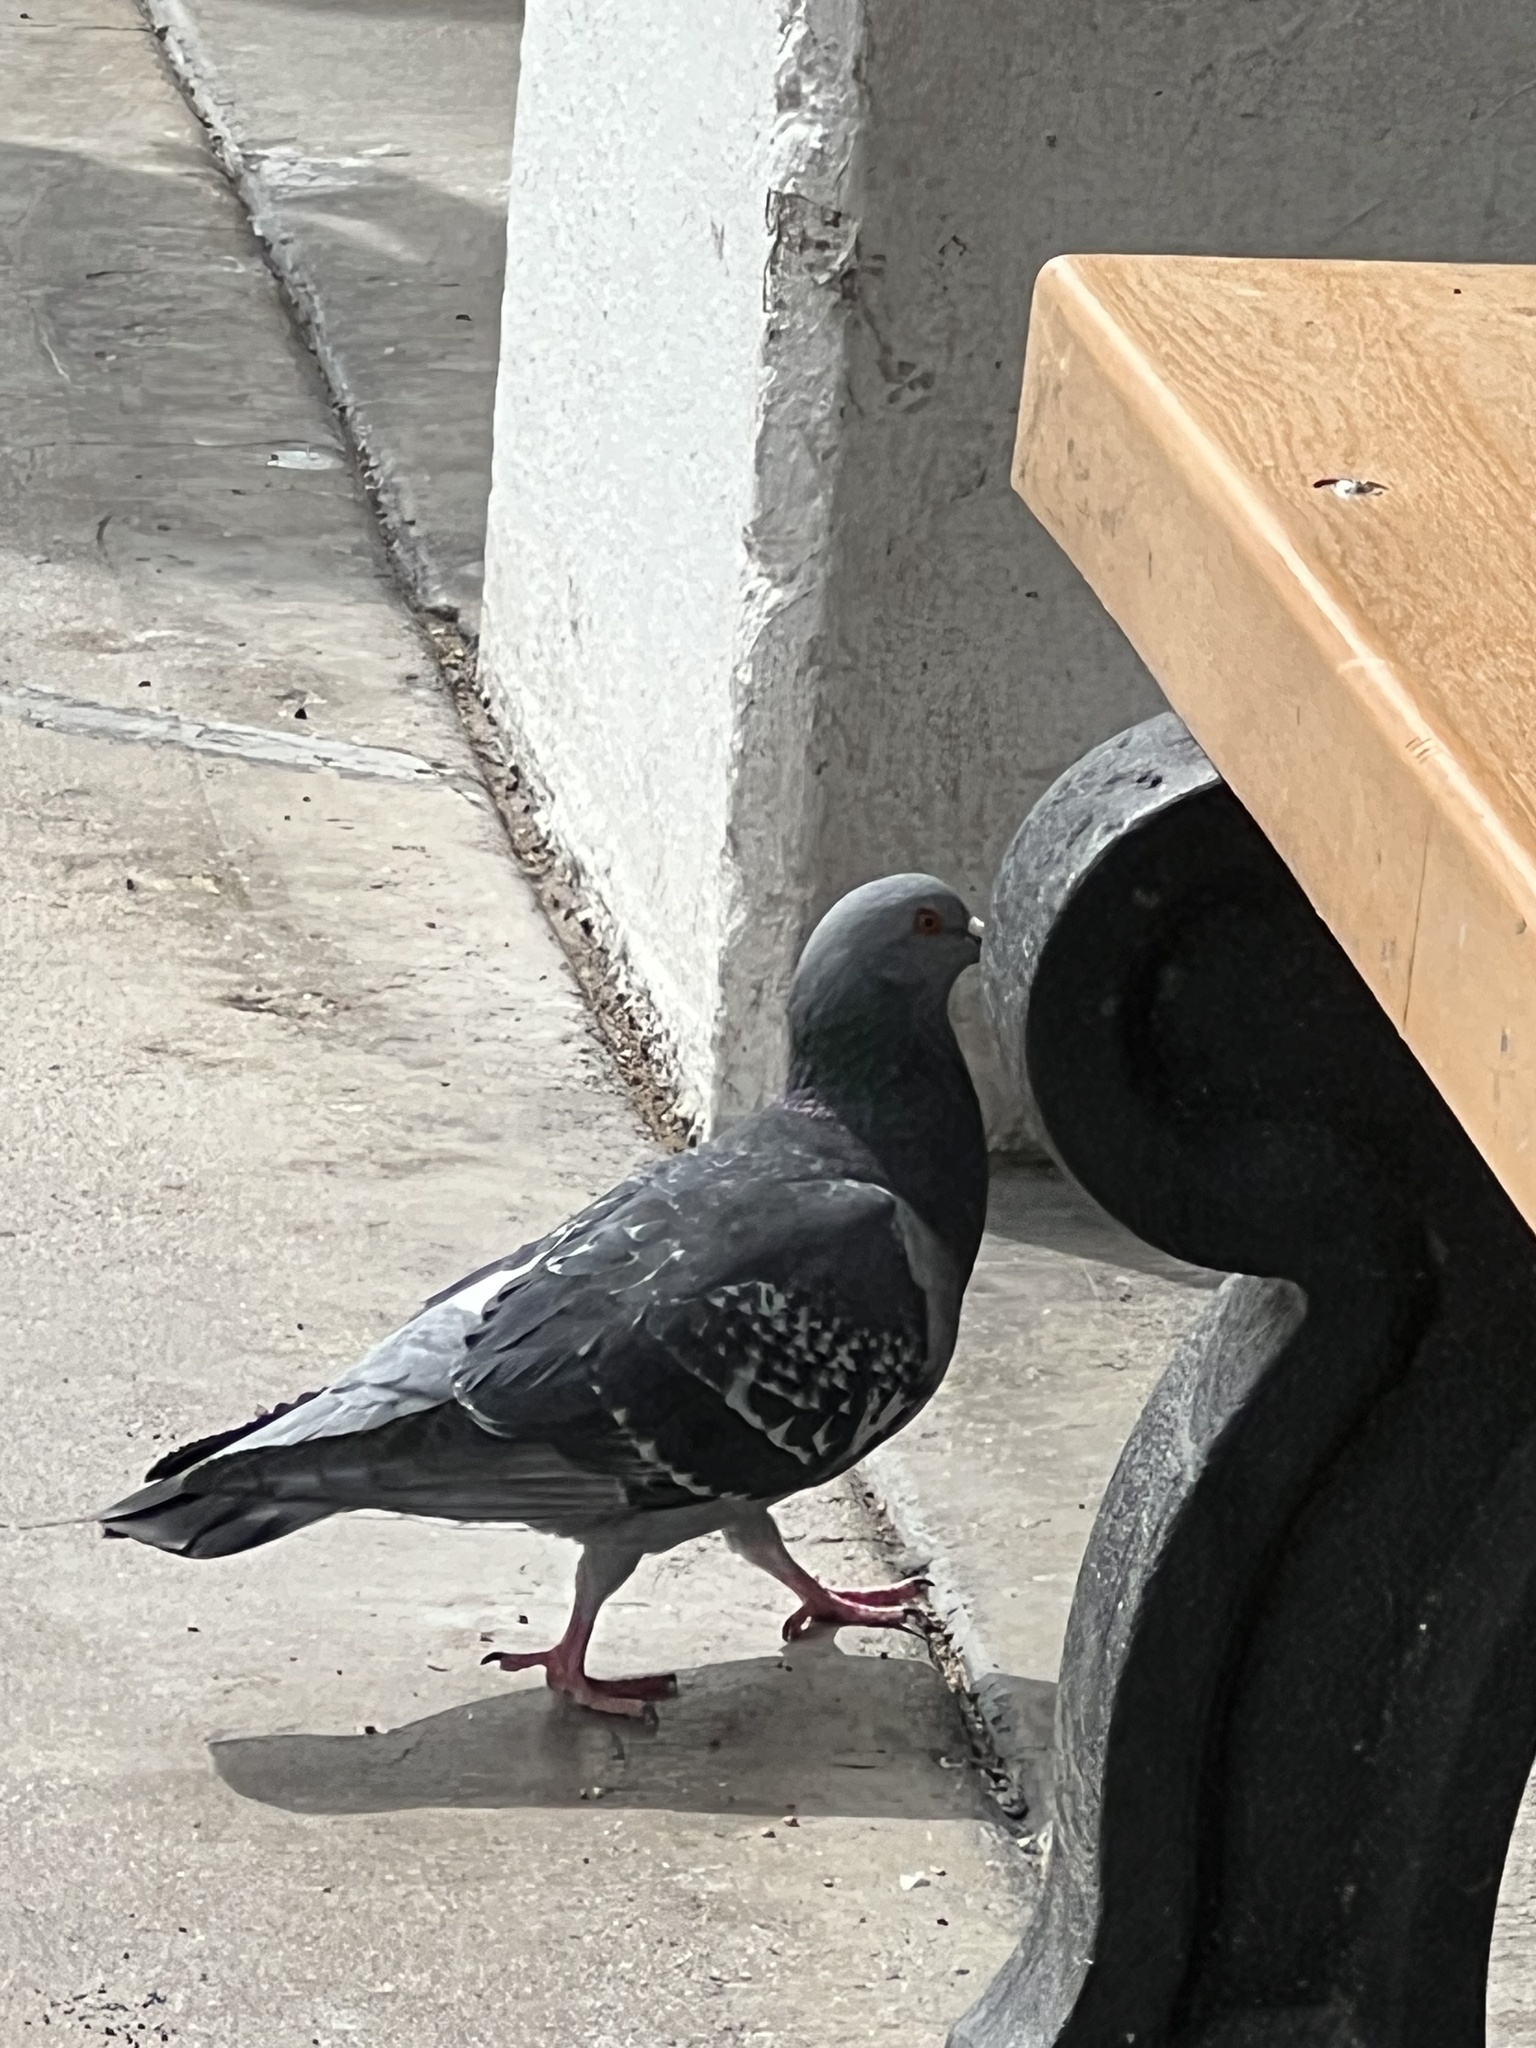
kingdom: Animalia
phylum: Chordata
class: Aves
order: Columbiformes
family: Columbidae
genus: Columba
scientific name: Columba livia
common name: Rock pigeon
